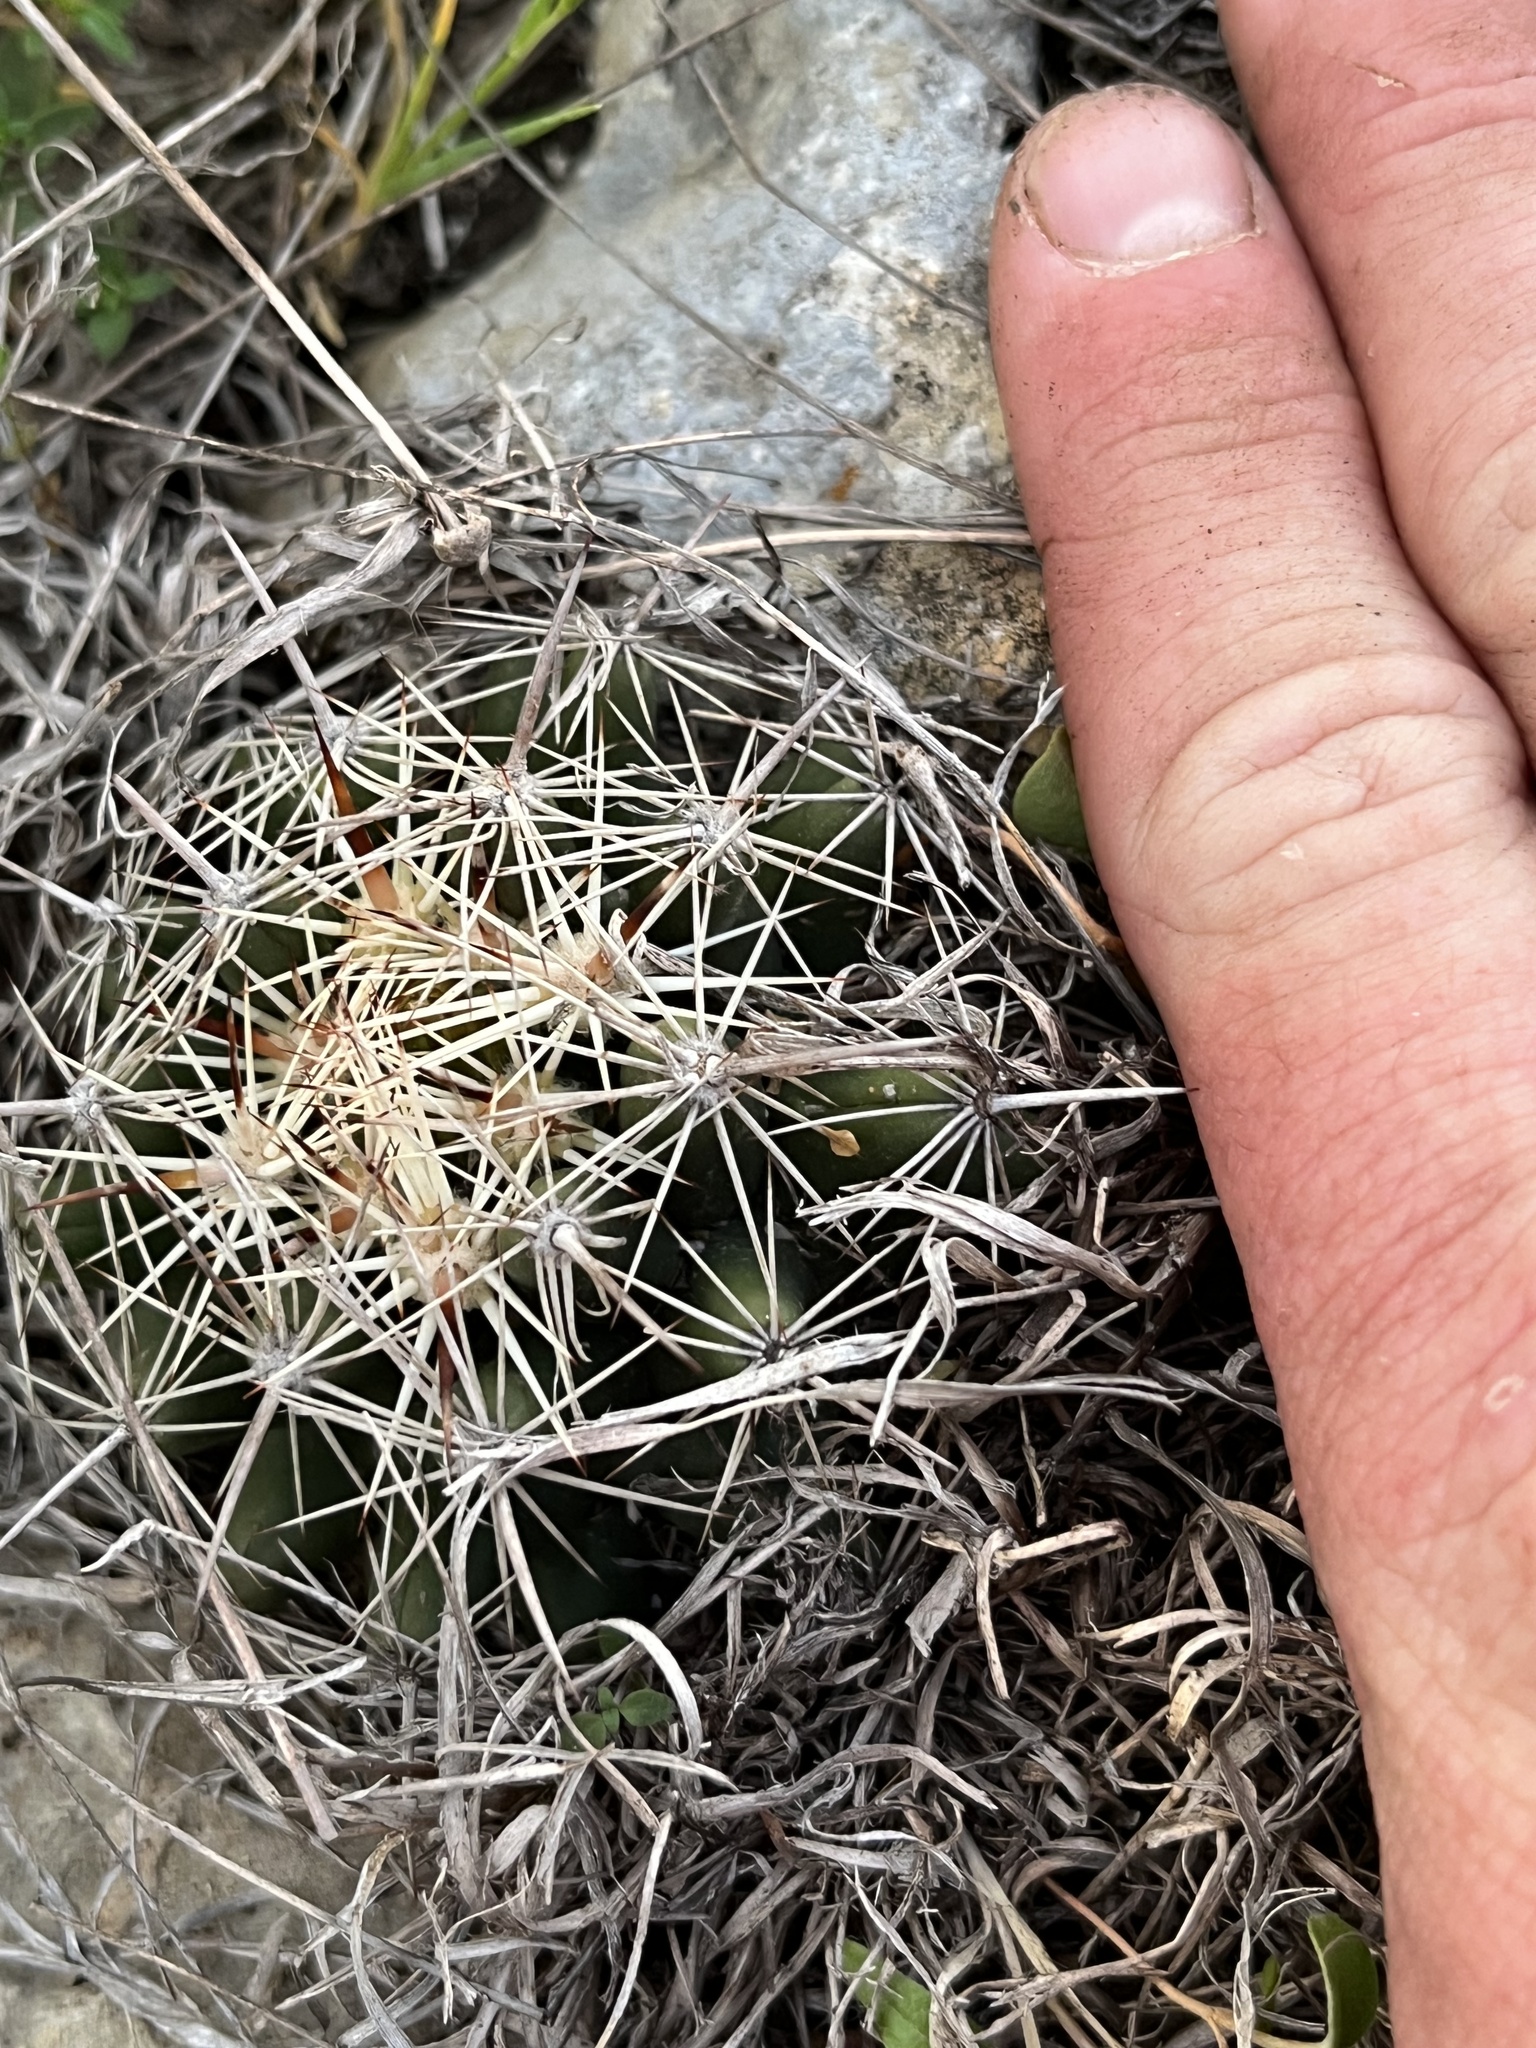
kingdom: Plantae
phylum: Tracheophyta
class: Magnoliopsida
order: Caryophyllales
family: Cactaceae
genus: Coryphantha
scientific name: Coryphantha sulcata
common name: Finger cactus
